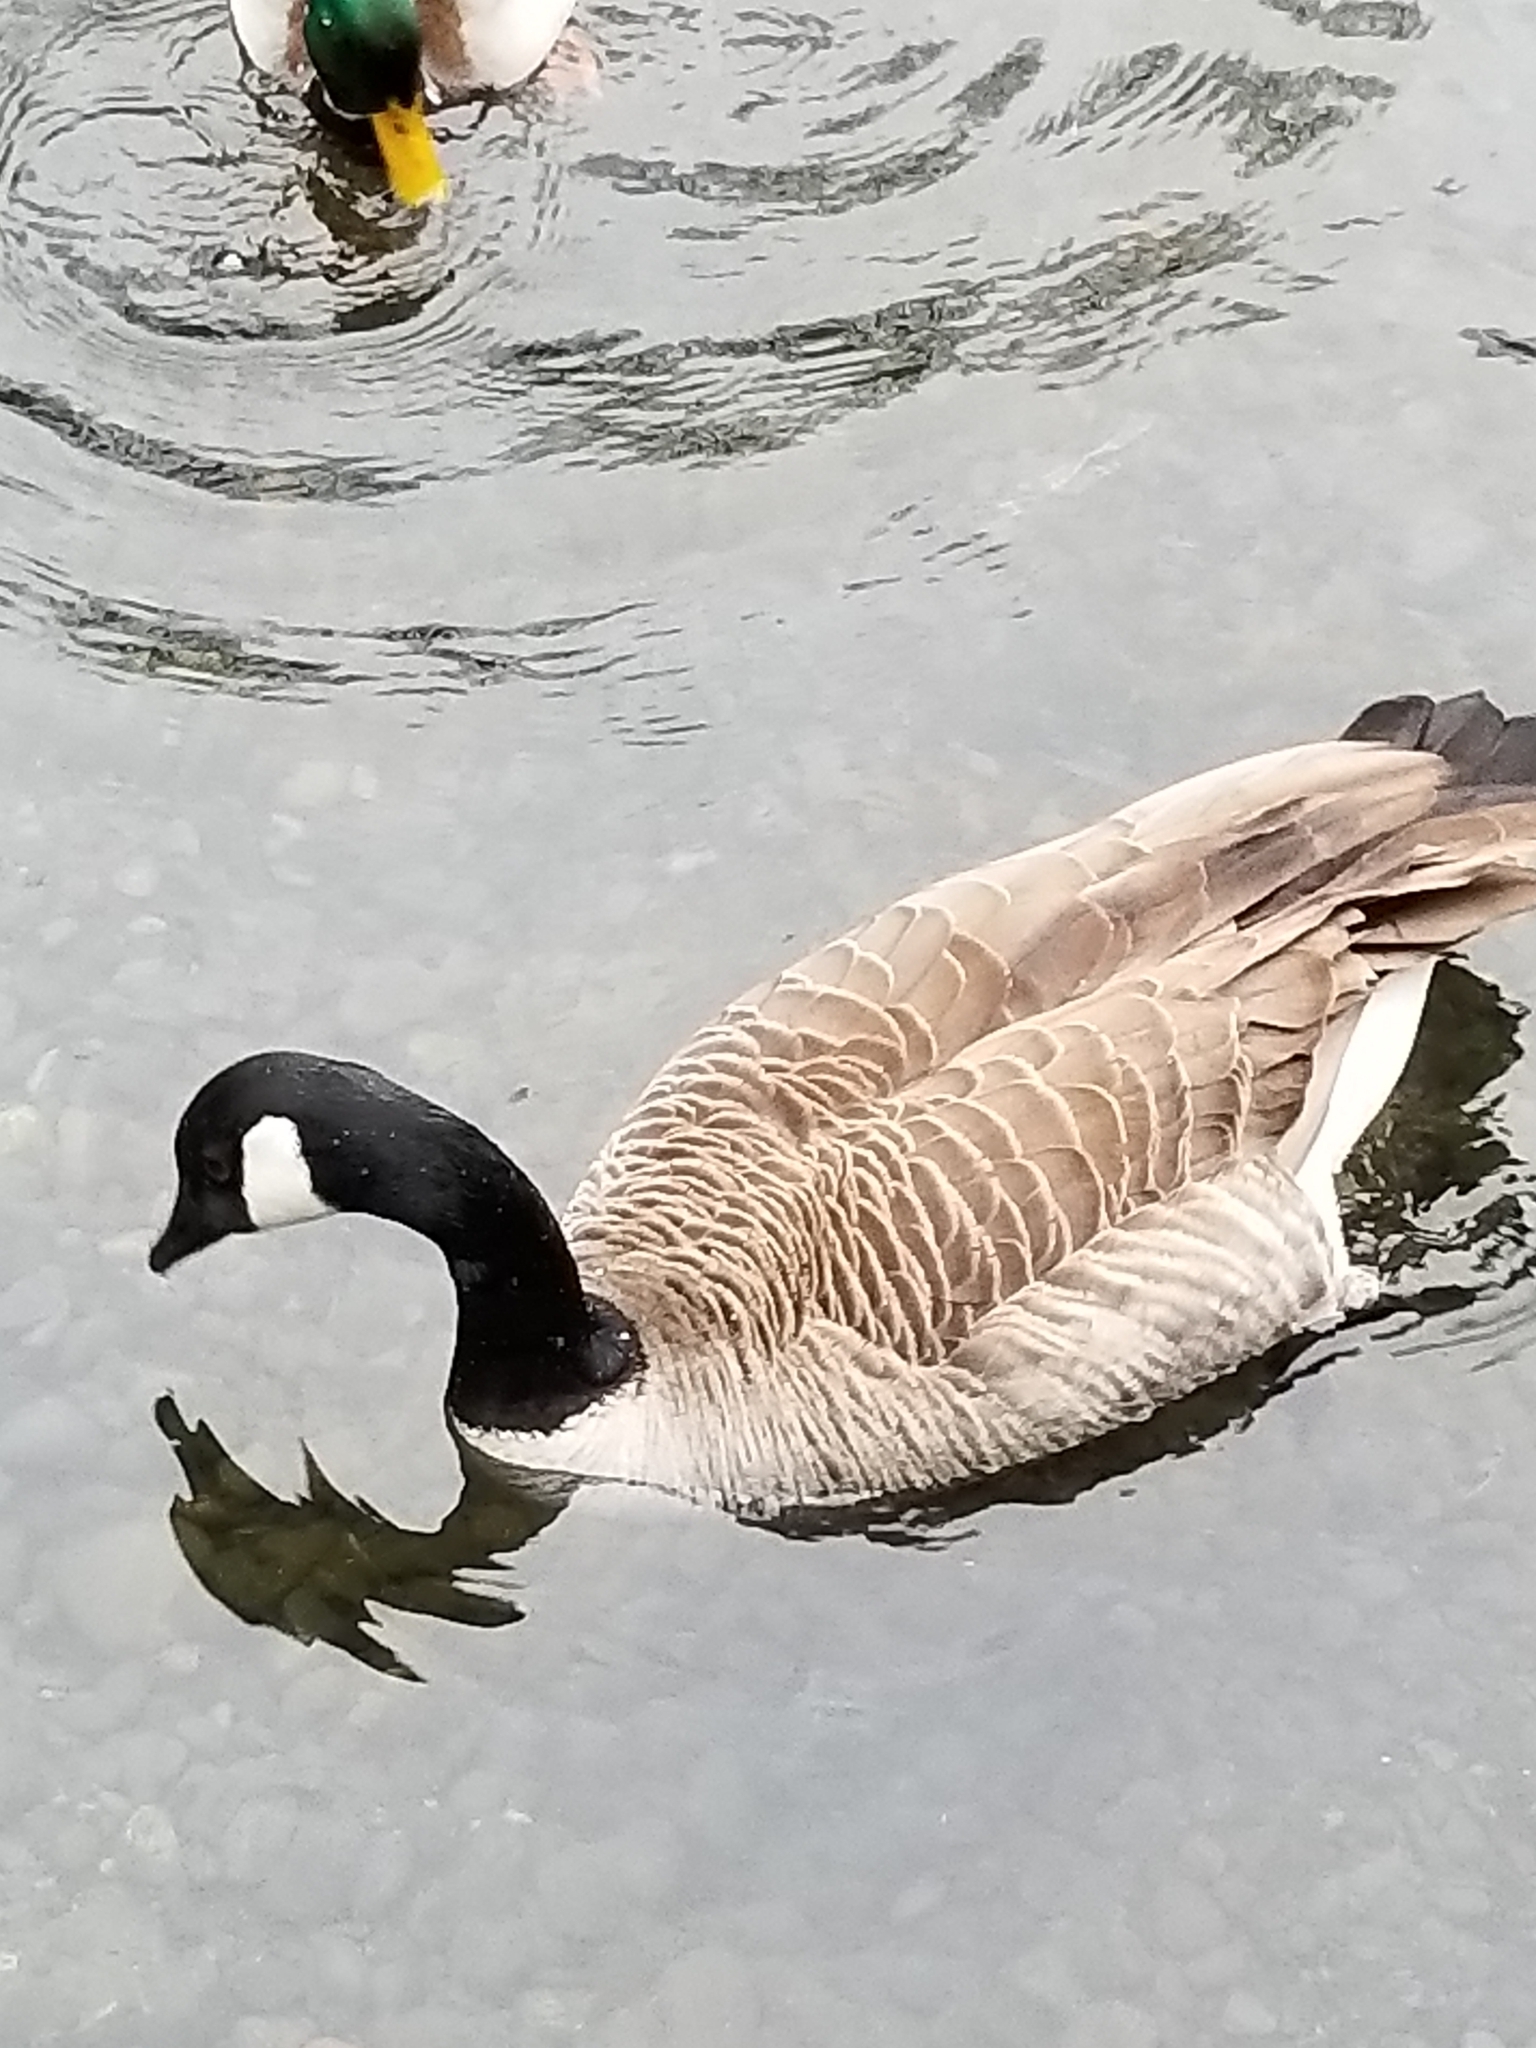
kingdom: Animalia
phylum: Chordata
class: Aves
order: Anseriformes
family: Anatidae
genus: Branta
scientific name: Branta canadensis
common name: Canada goose
